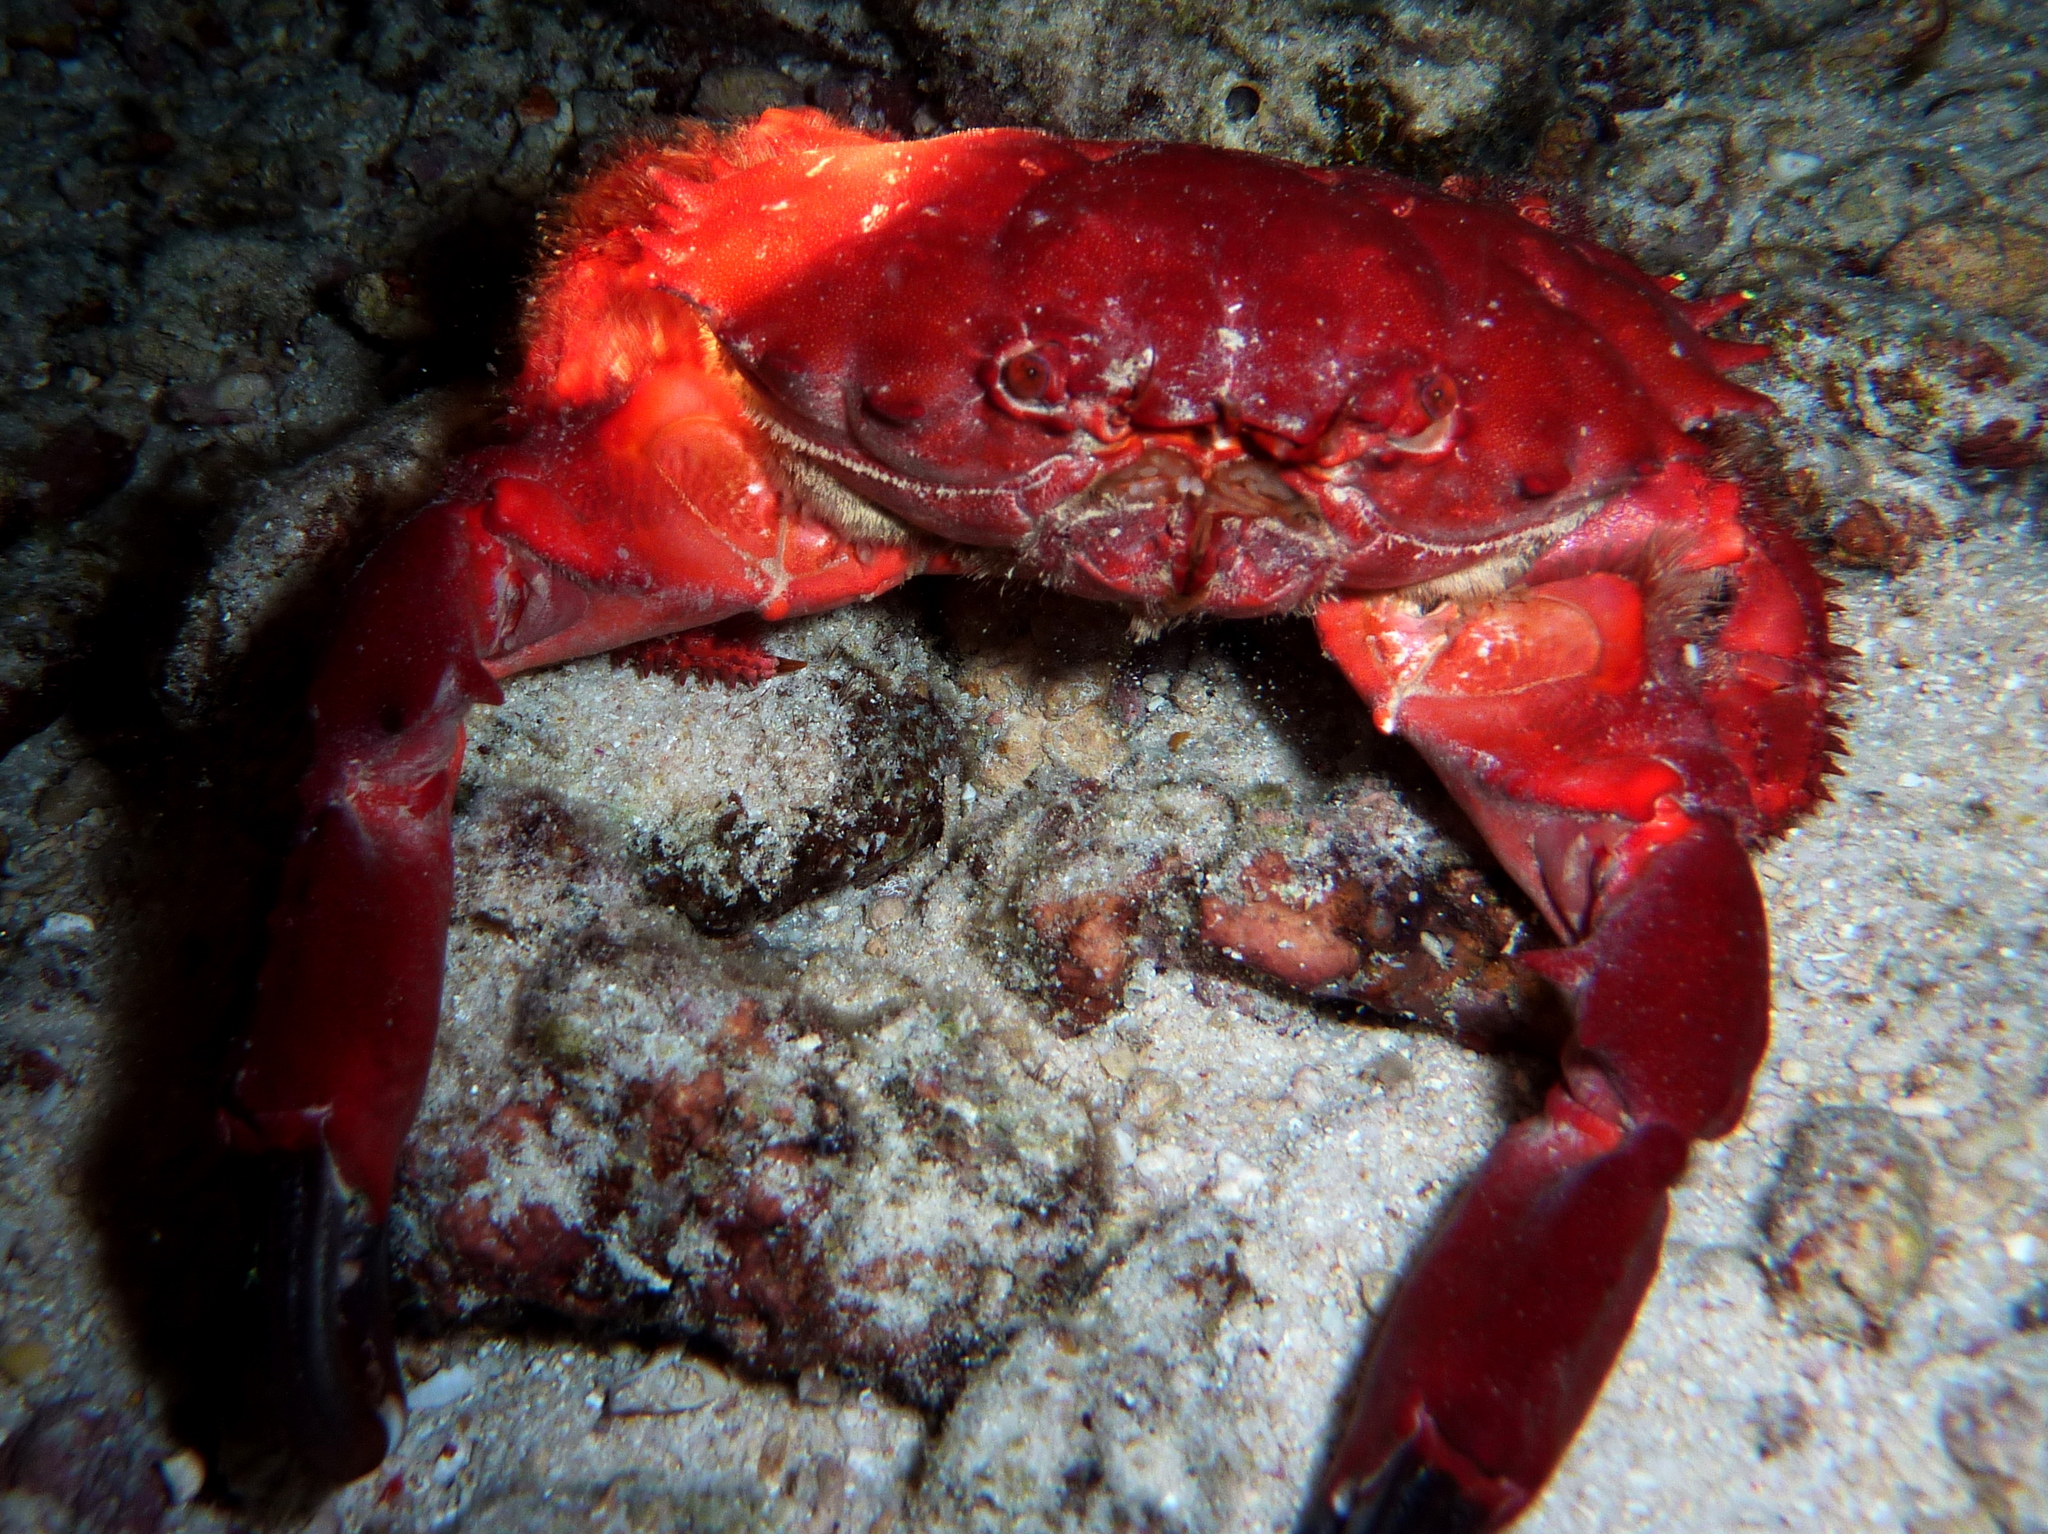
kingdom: Animalia
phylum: Arthropoda
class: Malacostraca
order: Decapoda
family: Xanthidae
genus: Etisus
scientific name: Etisus splendidus
